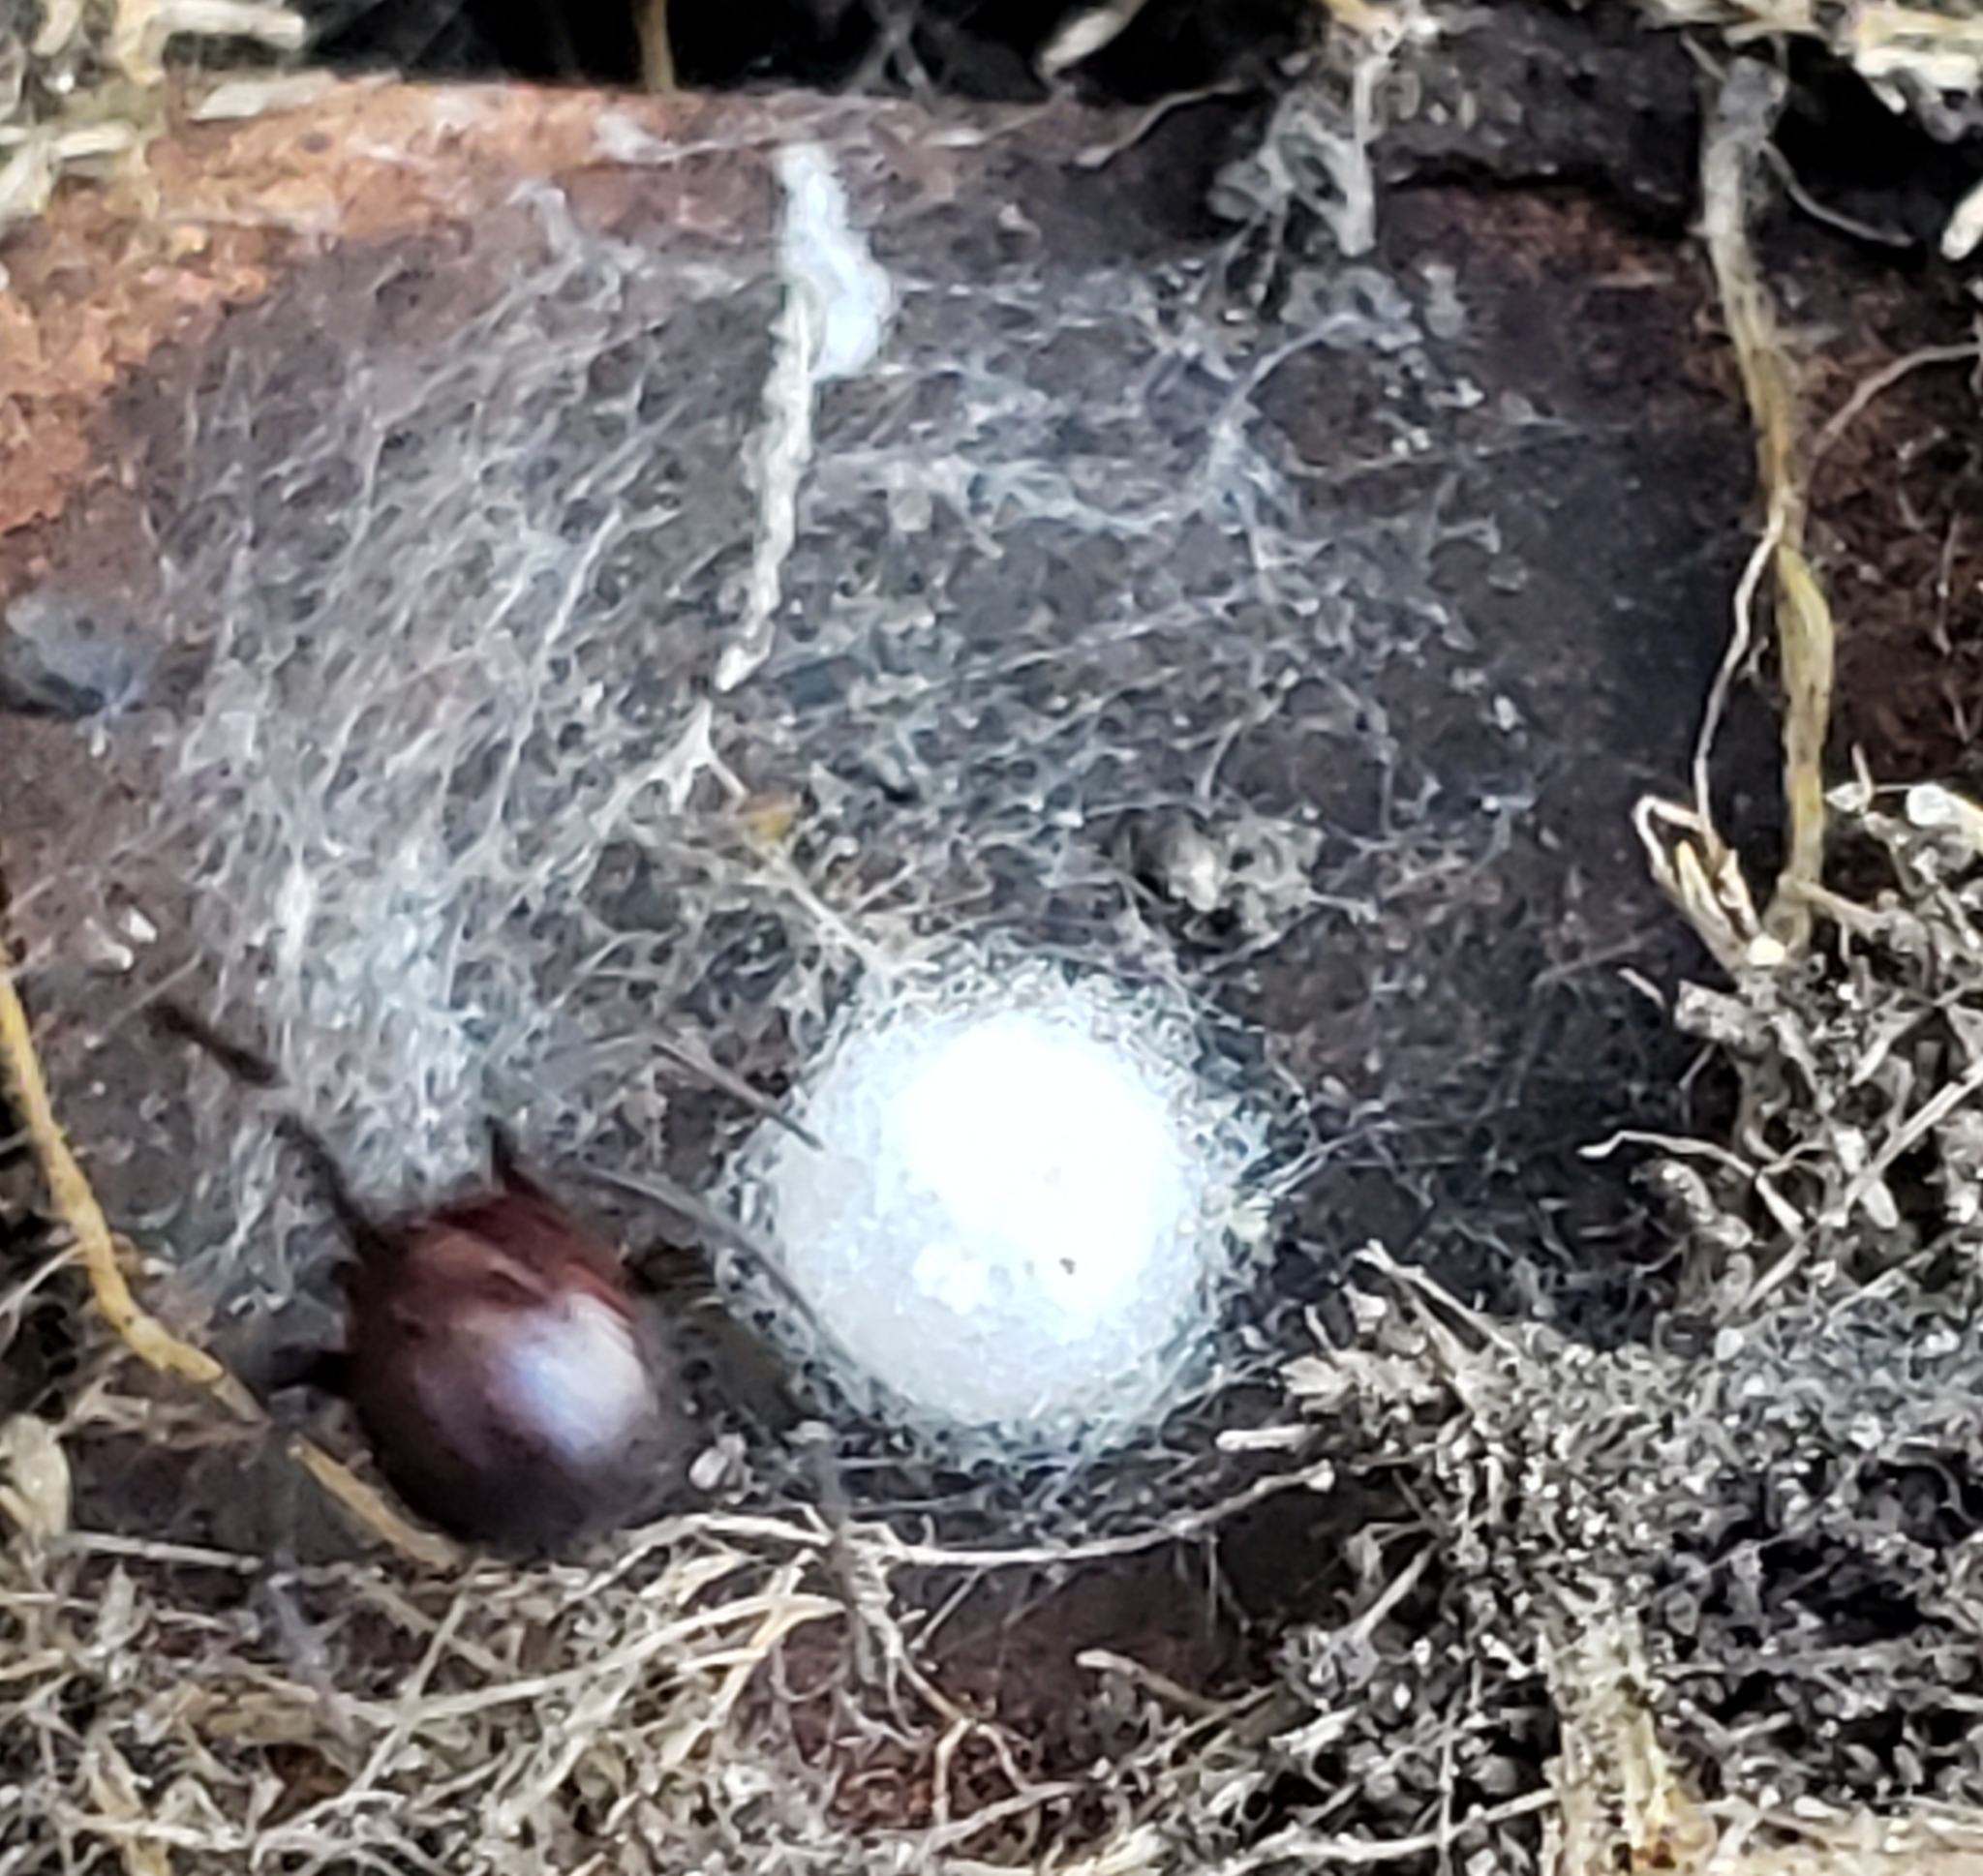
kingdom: Animalia
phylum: Arthropoda
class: Arachnida
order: Araneae
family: Theridiidae
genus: Steatoda
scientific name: Steatoda grossa
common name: False black widow
